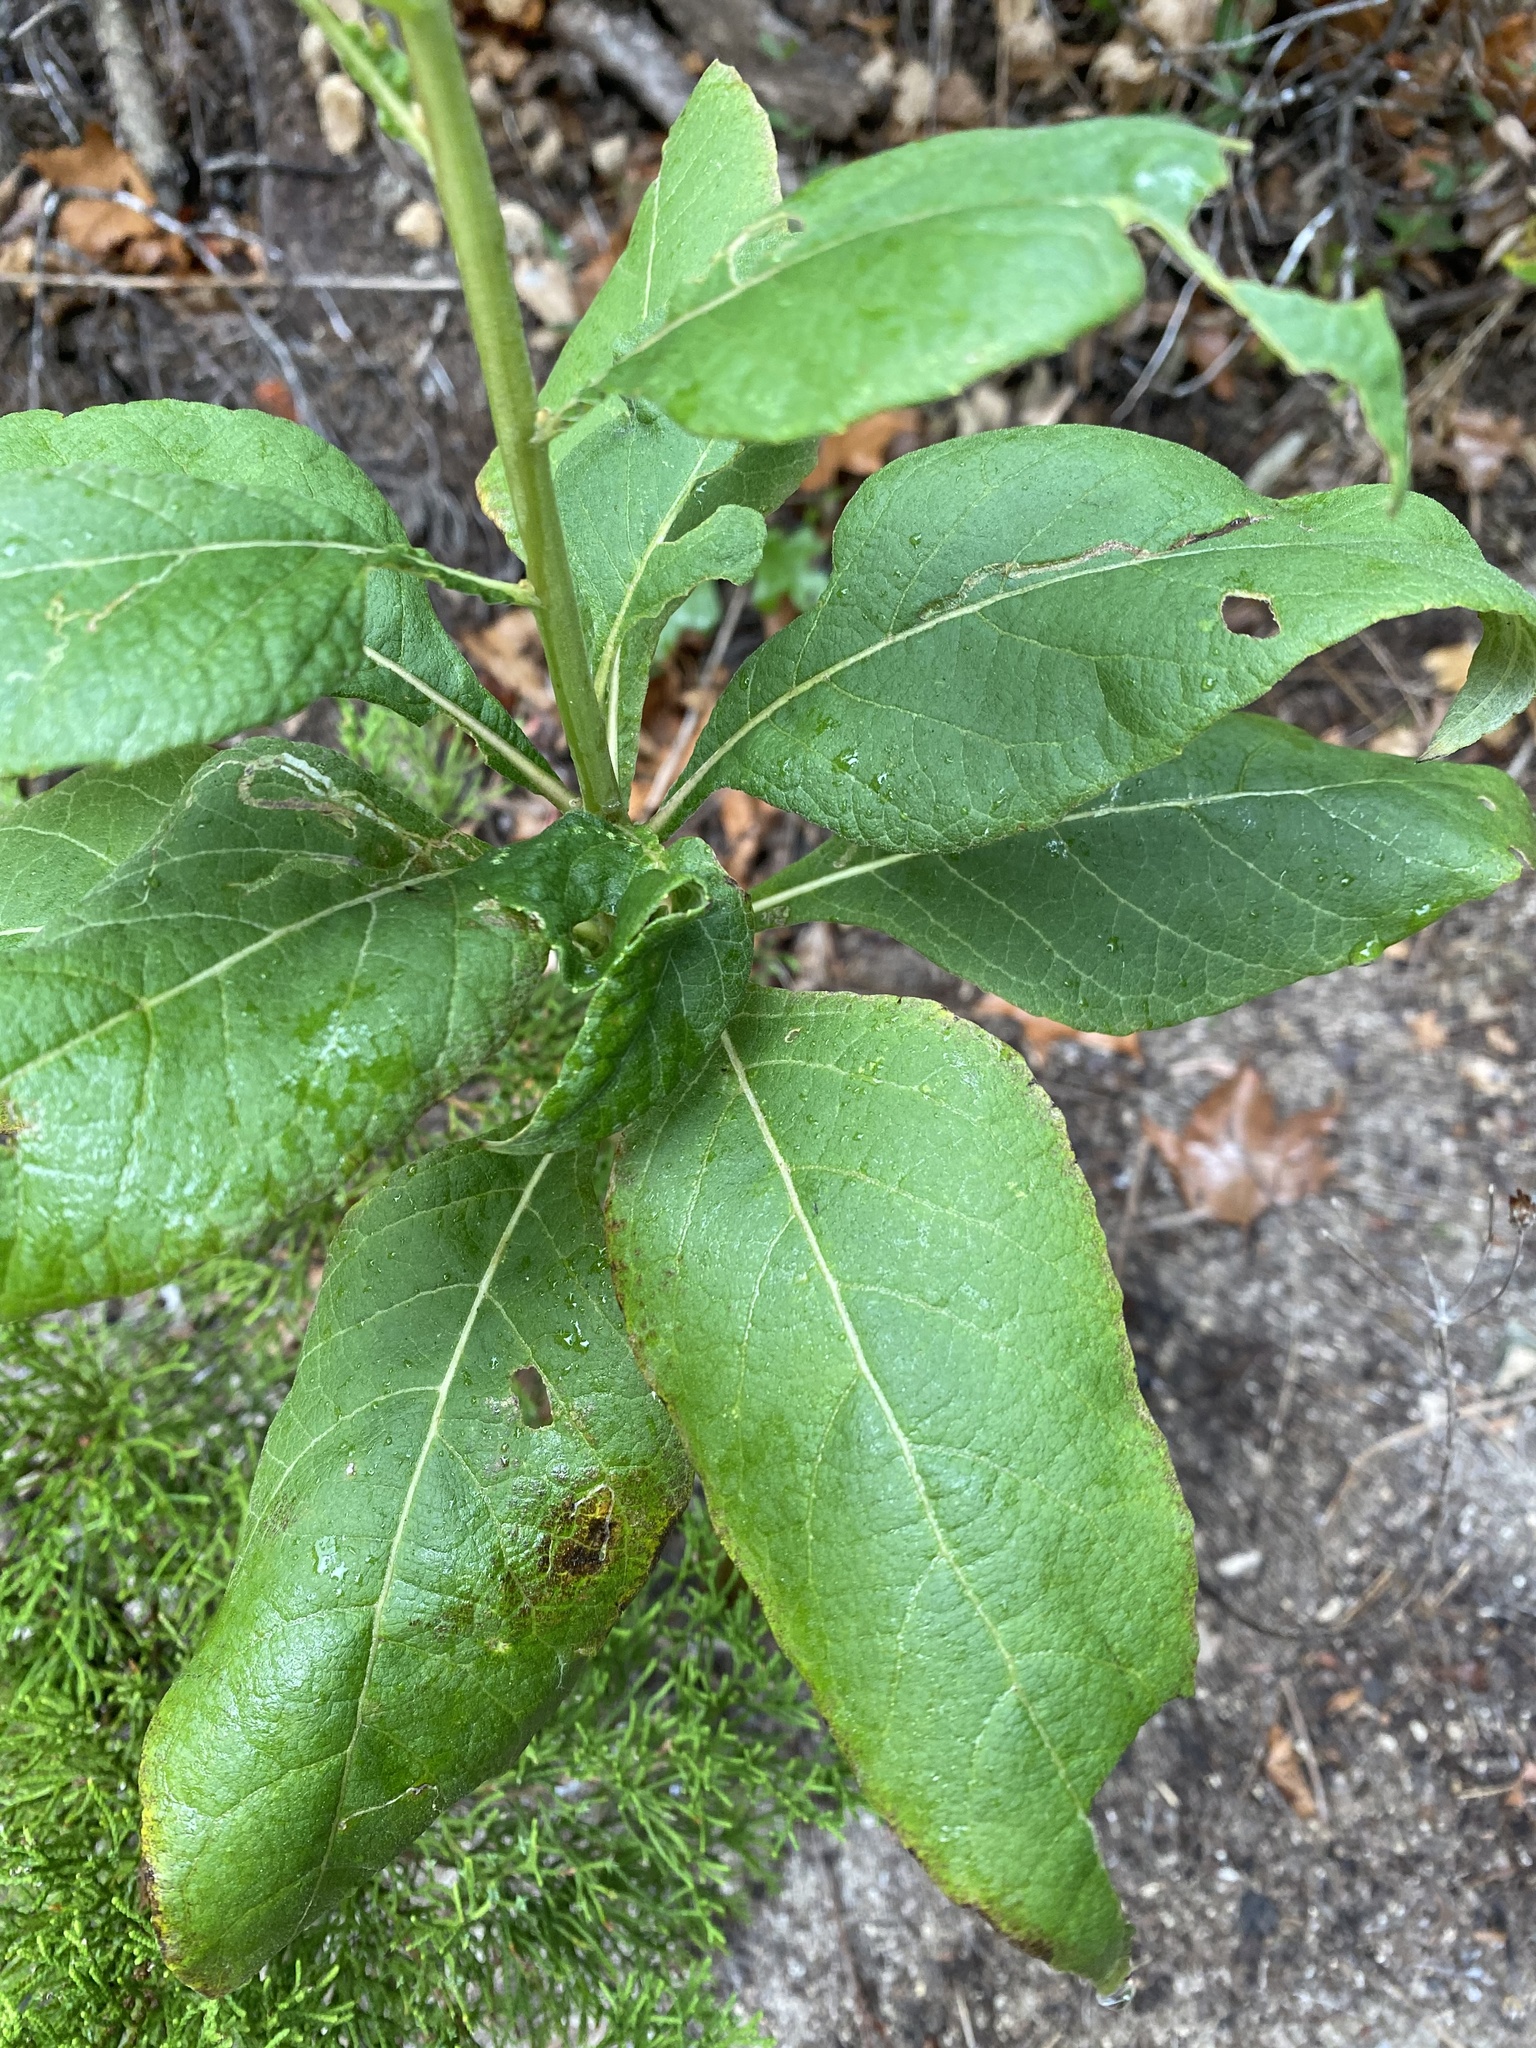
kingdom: Plantae
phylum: Tracheophyta
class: Magnoliopsida
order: Asterales
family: Asteraceae
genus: Verbesina
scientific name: Verbesina virginica
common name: Frostweed
